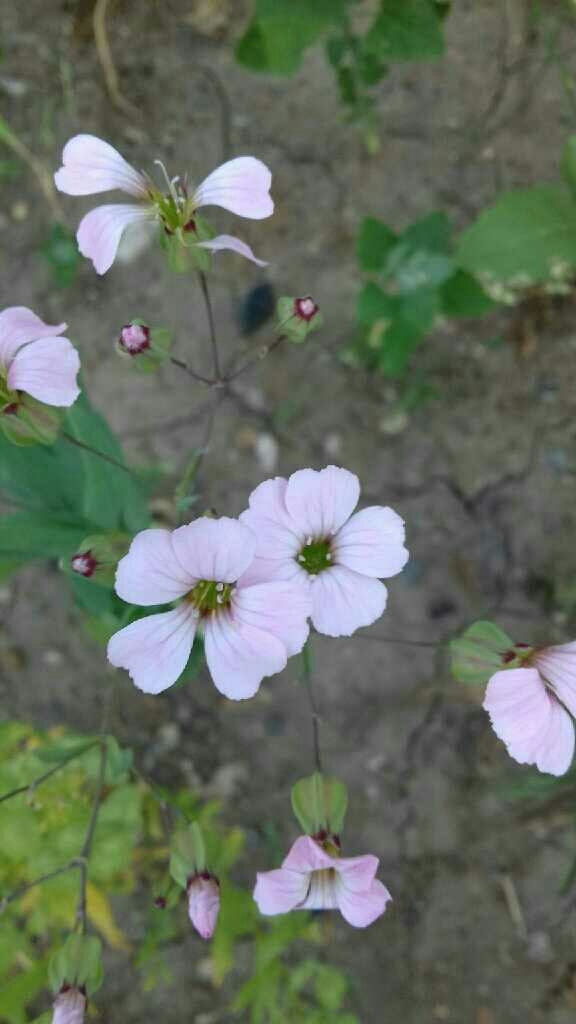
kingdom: Plantae
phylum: Tracheophyta
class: Magnoliopsida
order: Caryophyllales
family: Caryophyllaceae
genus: Gypsophila
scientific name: Gypsophila vaccaria
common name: Cow soapwort
